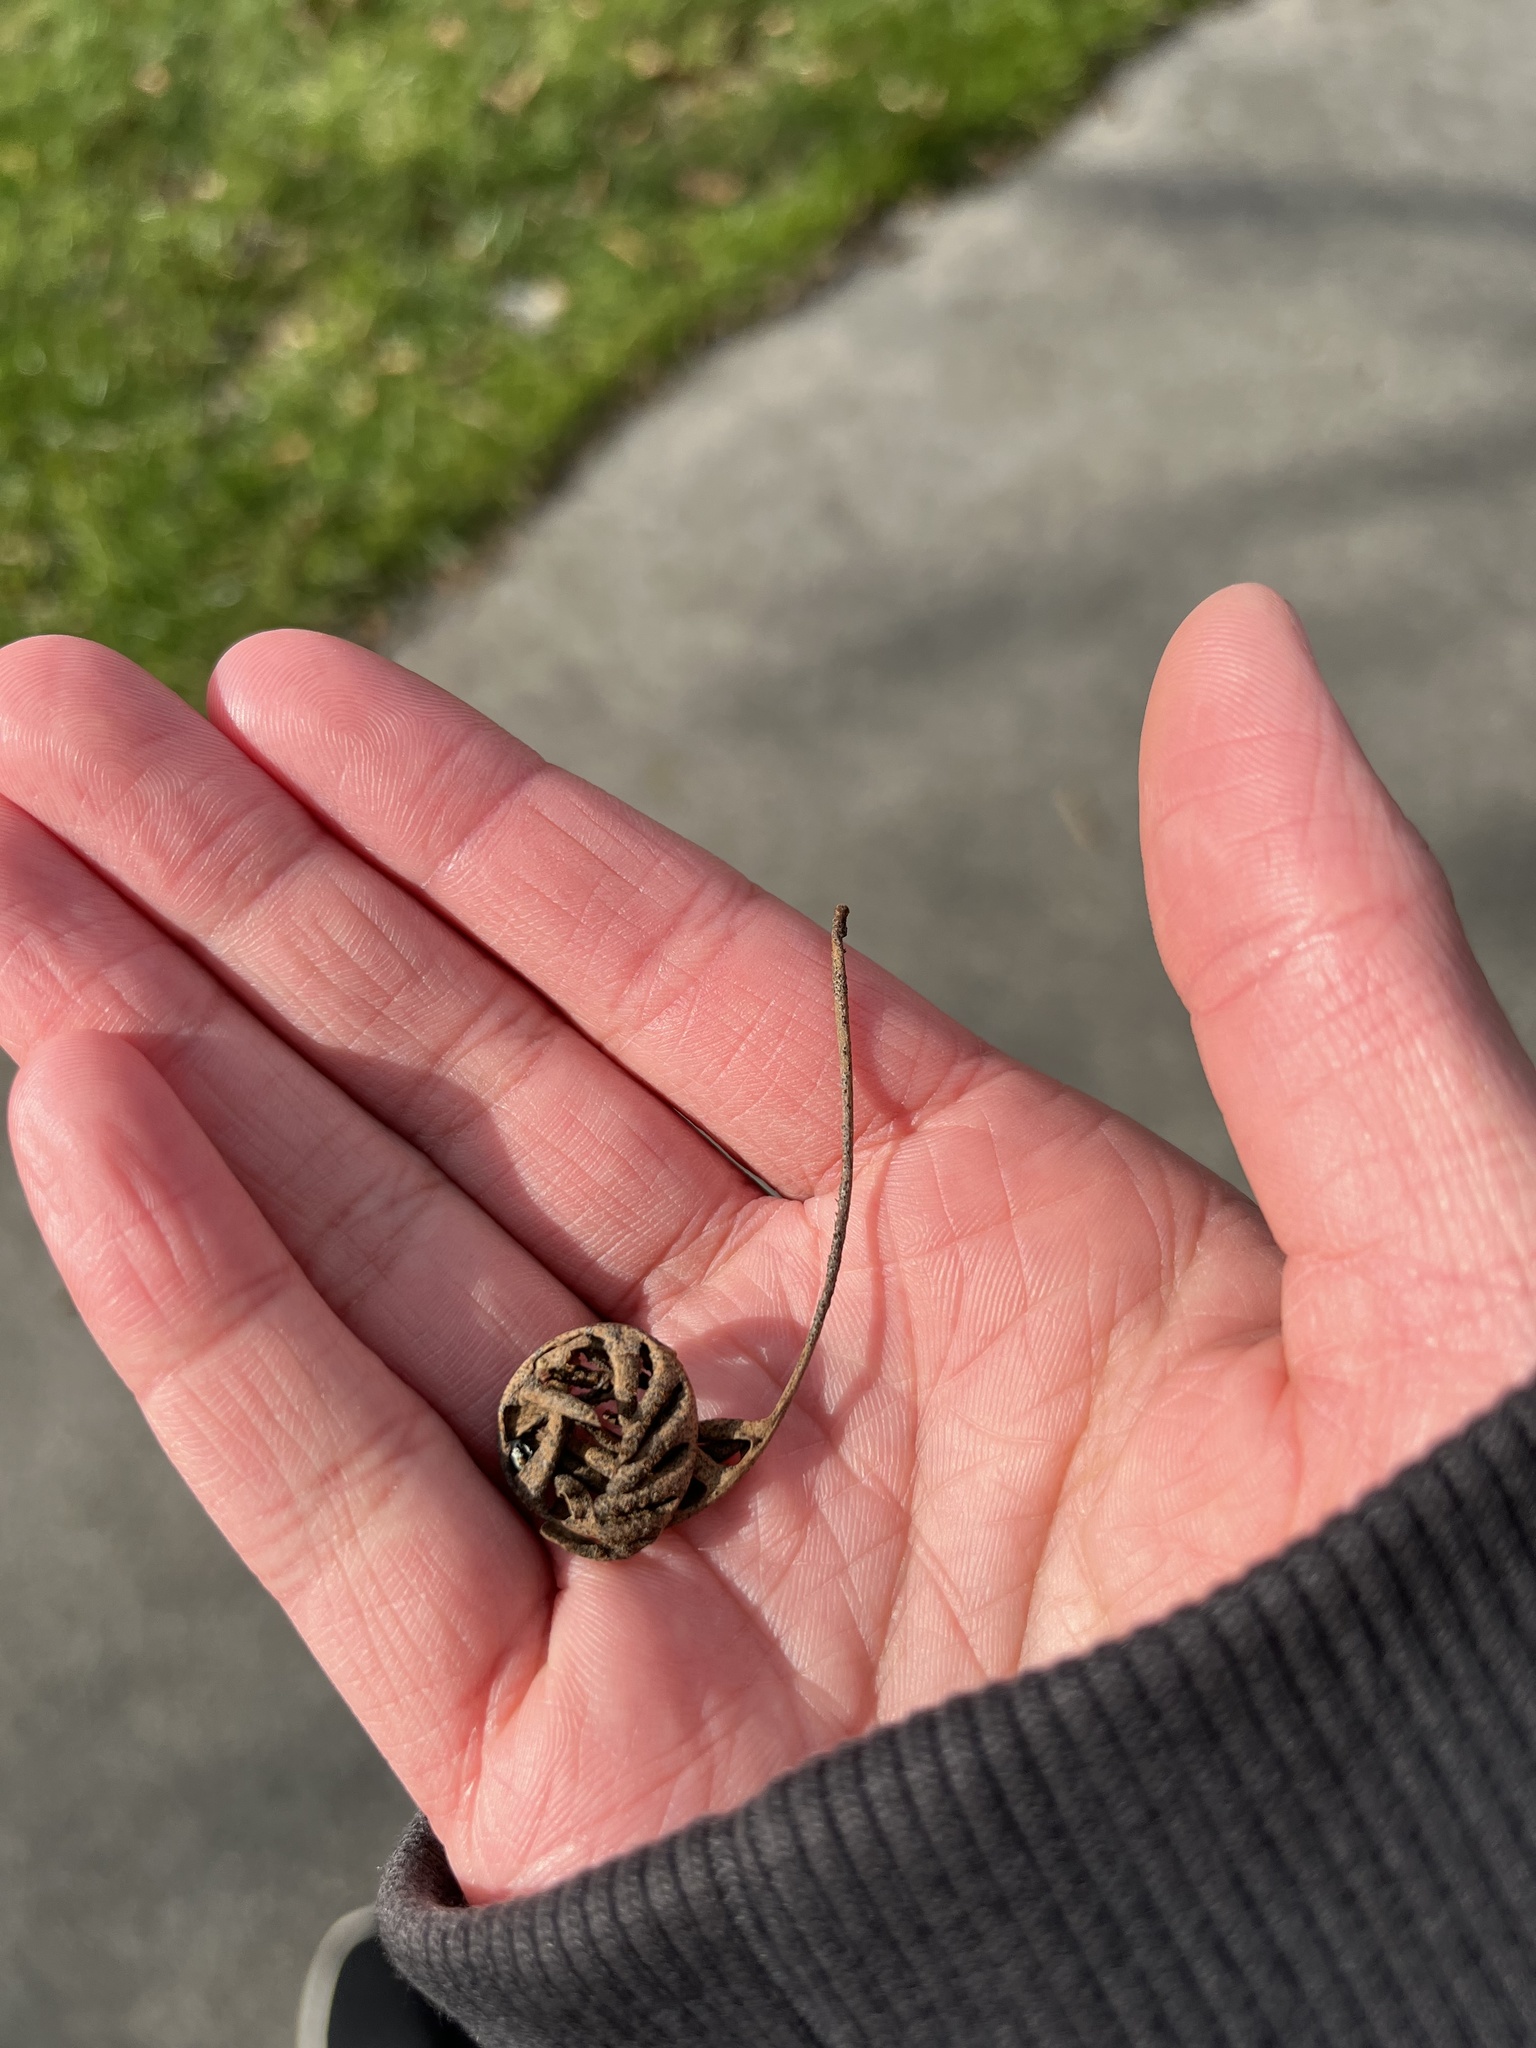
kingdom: Plantae
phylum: Tracheophyta
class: Polypodiopsida
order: Polypodiales
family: Polypodiaceae
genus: Pleopeltis
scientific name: Pleopeltis michauxiana
